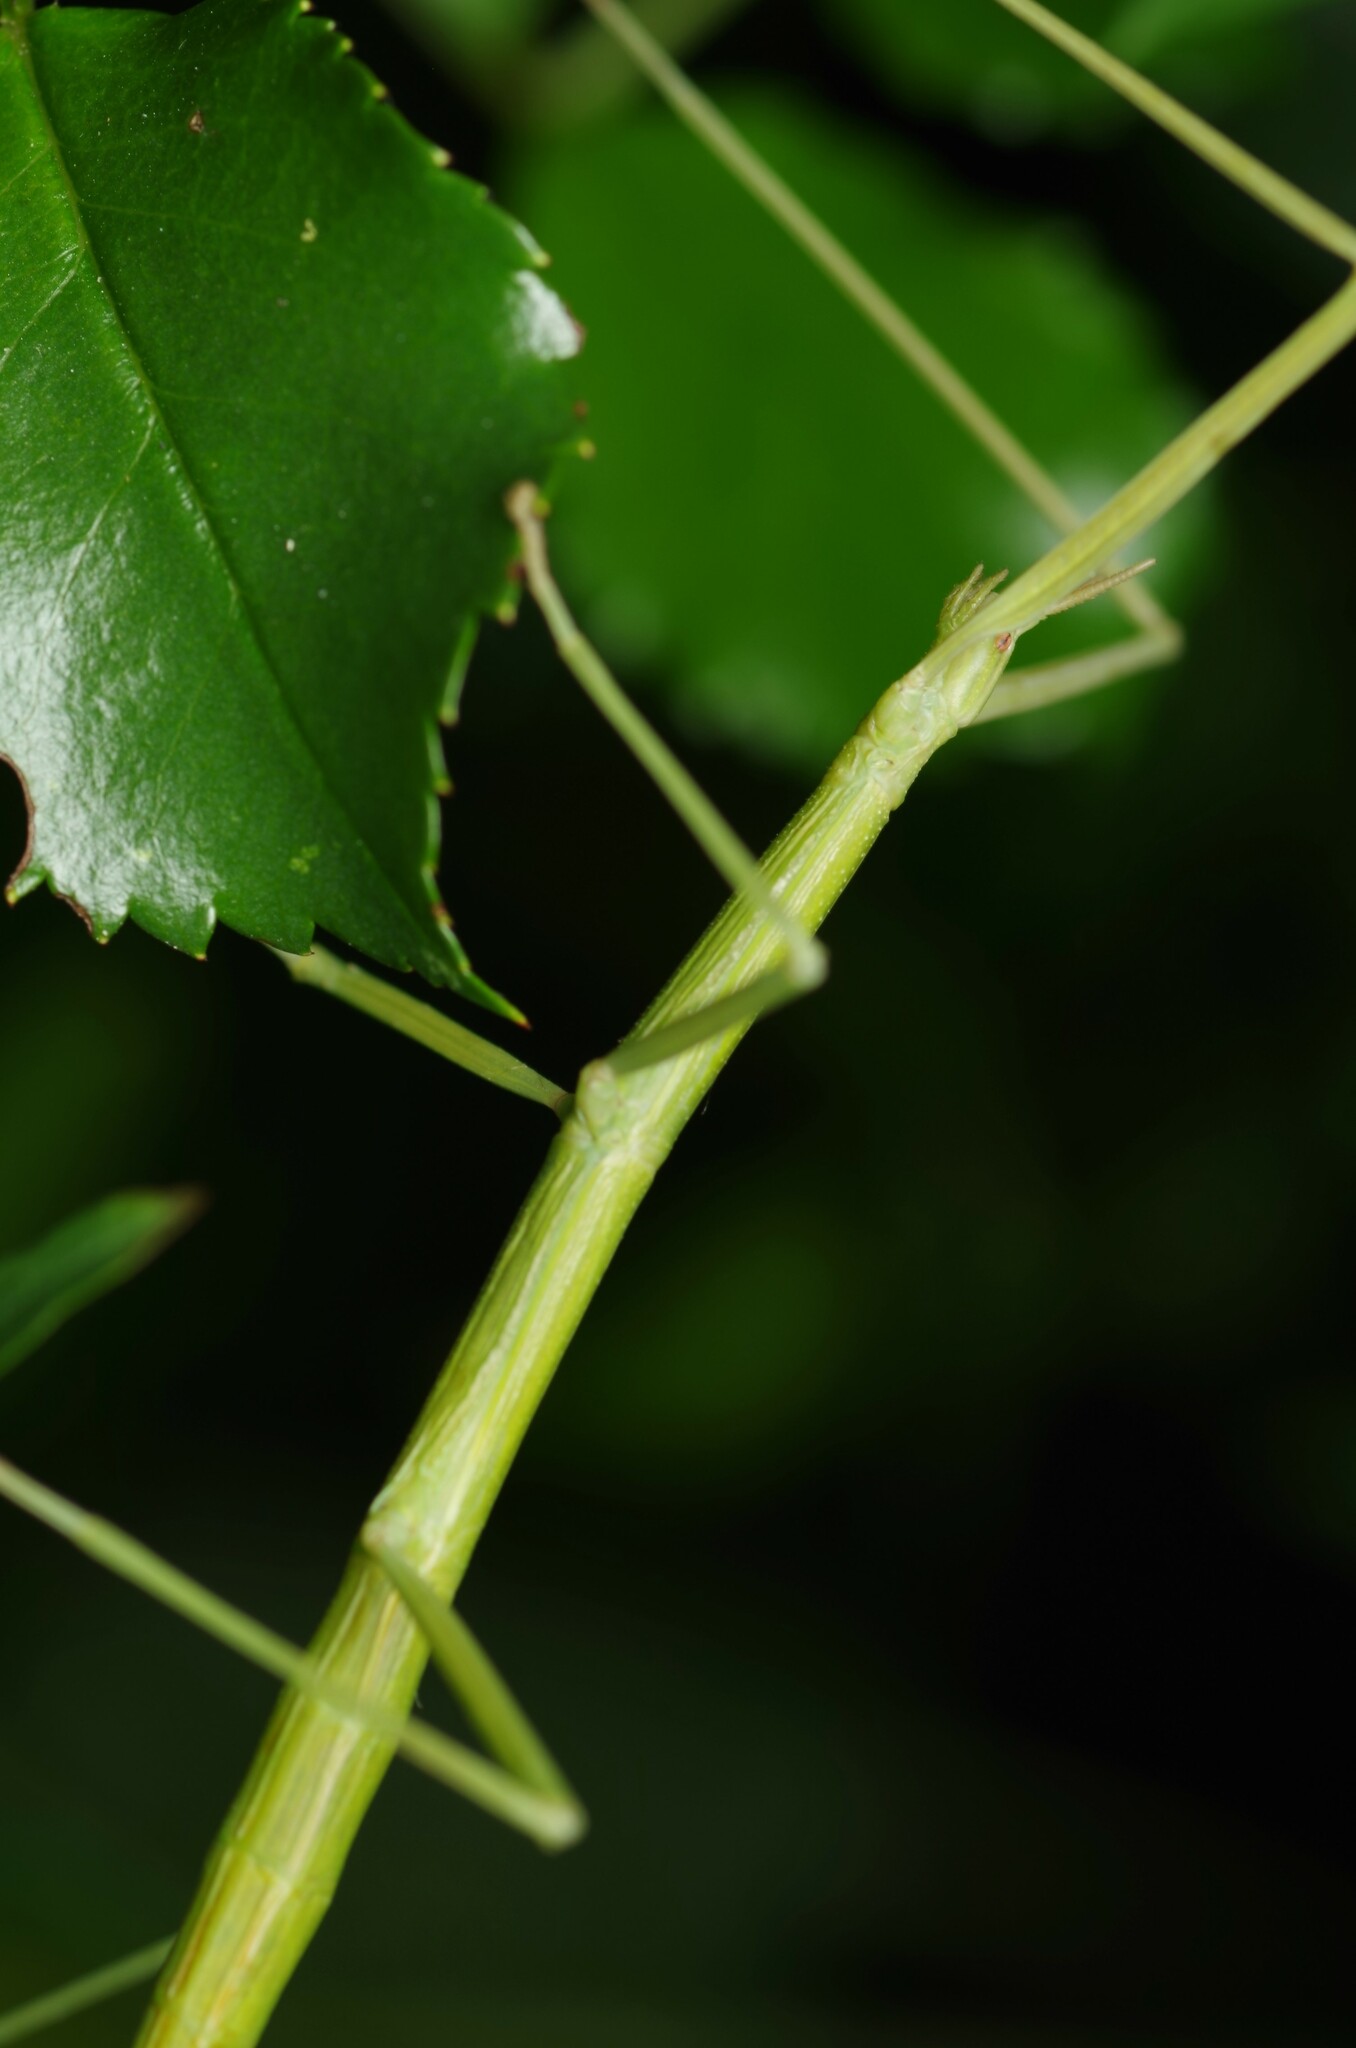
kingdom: Animalia
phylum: Arthropoda
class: Insecta
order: Phasmida
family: Bacillidae
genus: Clonopsis
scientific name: Clonopsis gallica
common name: French stick insect
